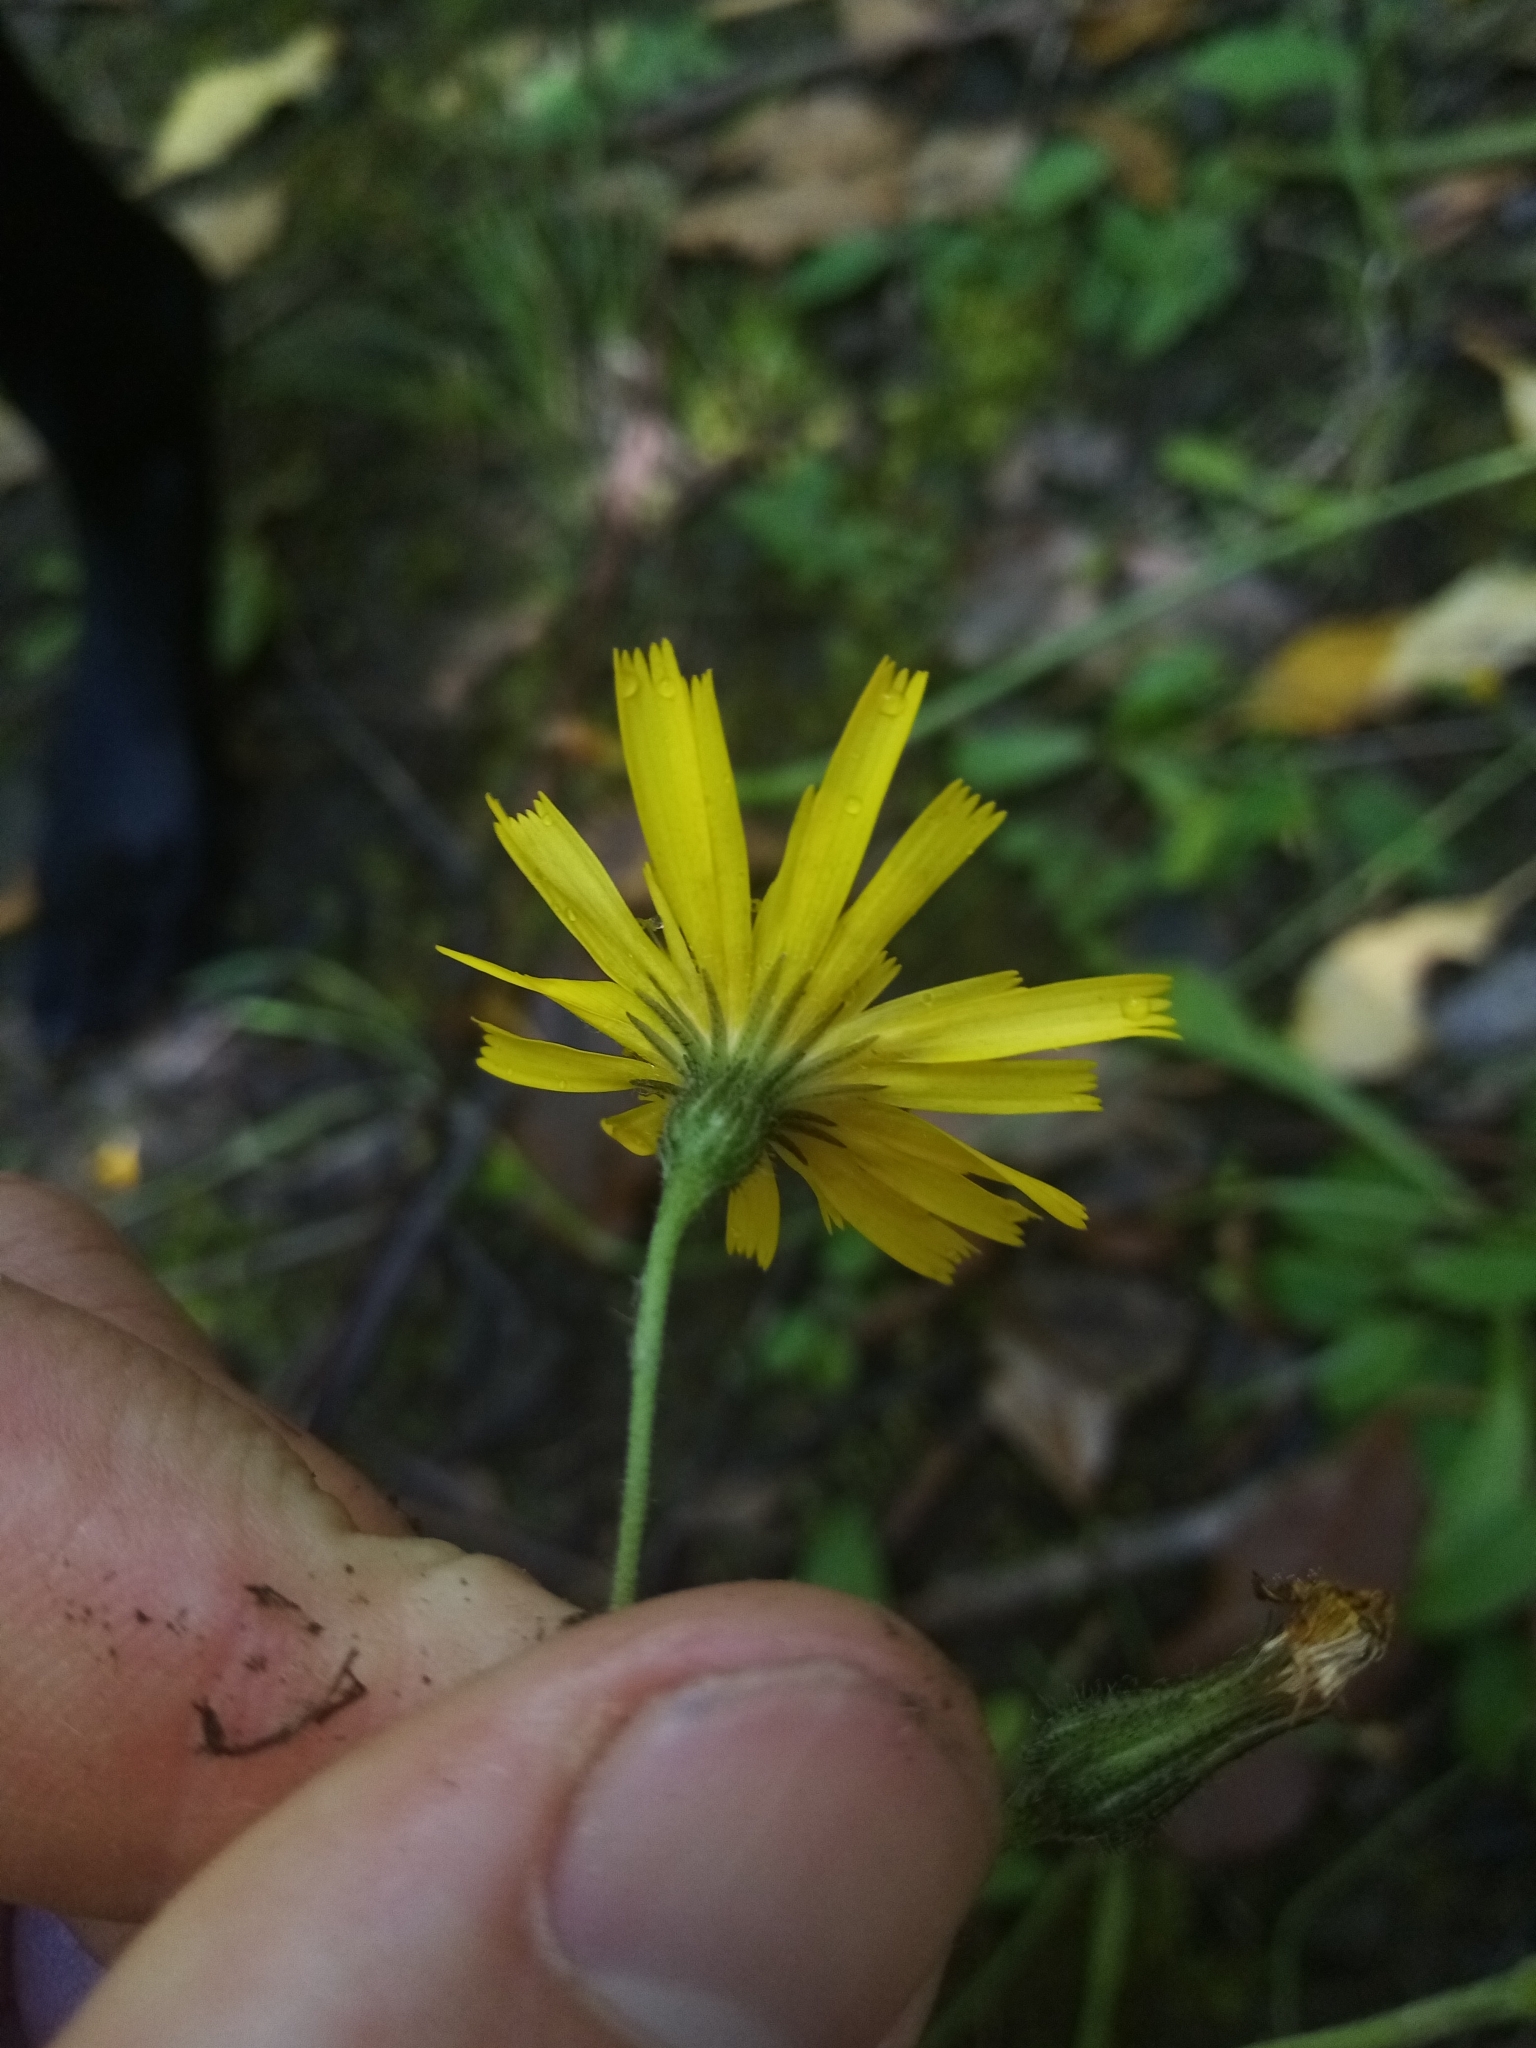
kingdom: Plantae
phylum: Tracheophyta
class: Magnoliopsida
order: Asterales
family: Asteraceae
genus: Hieracium
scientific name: Hieracium lepidulum
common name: Irregular-toothed hawkweed
